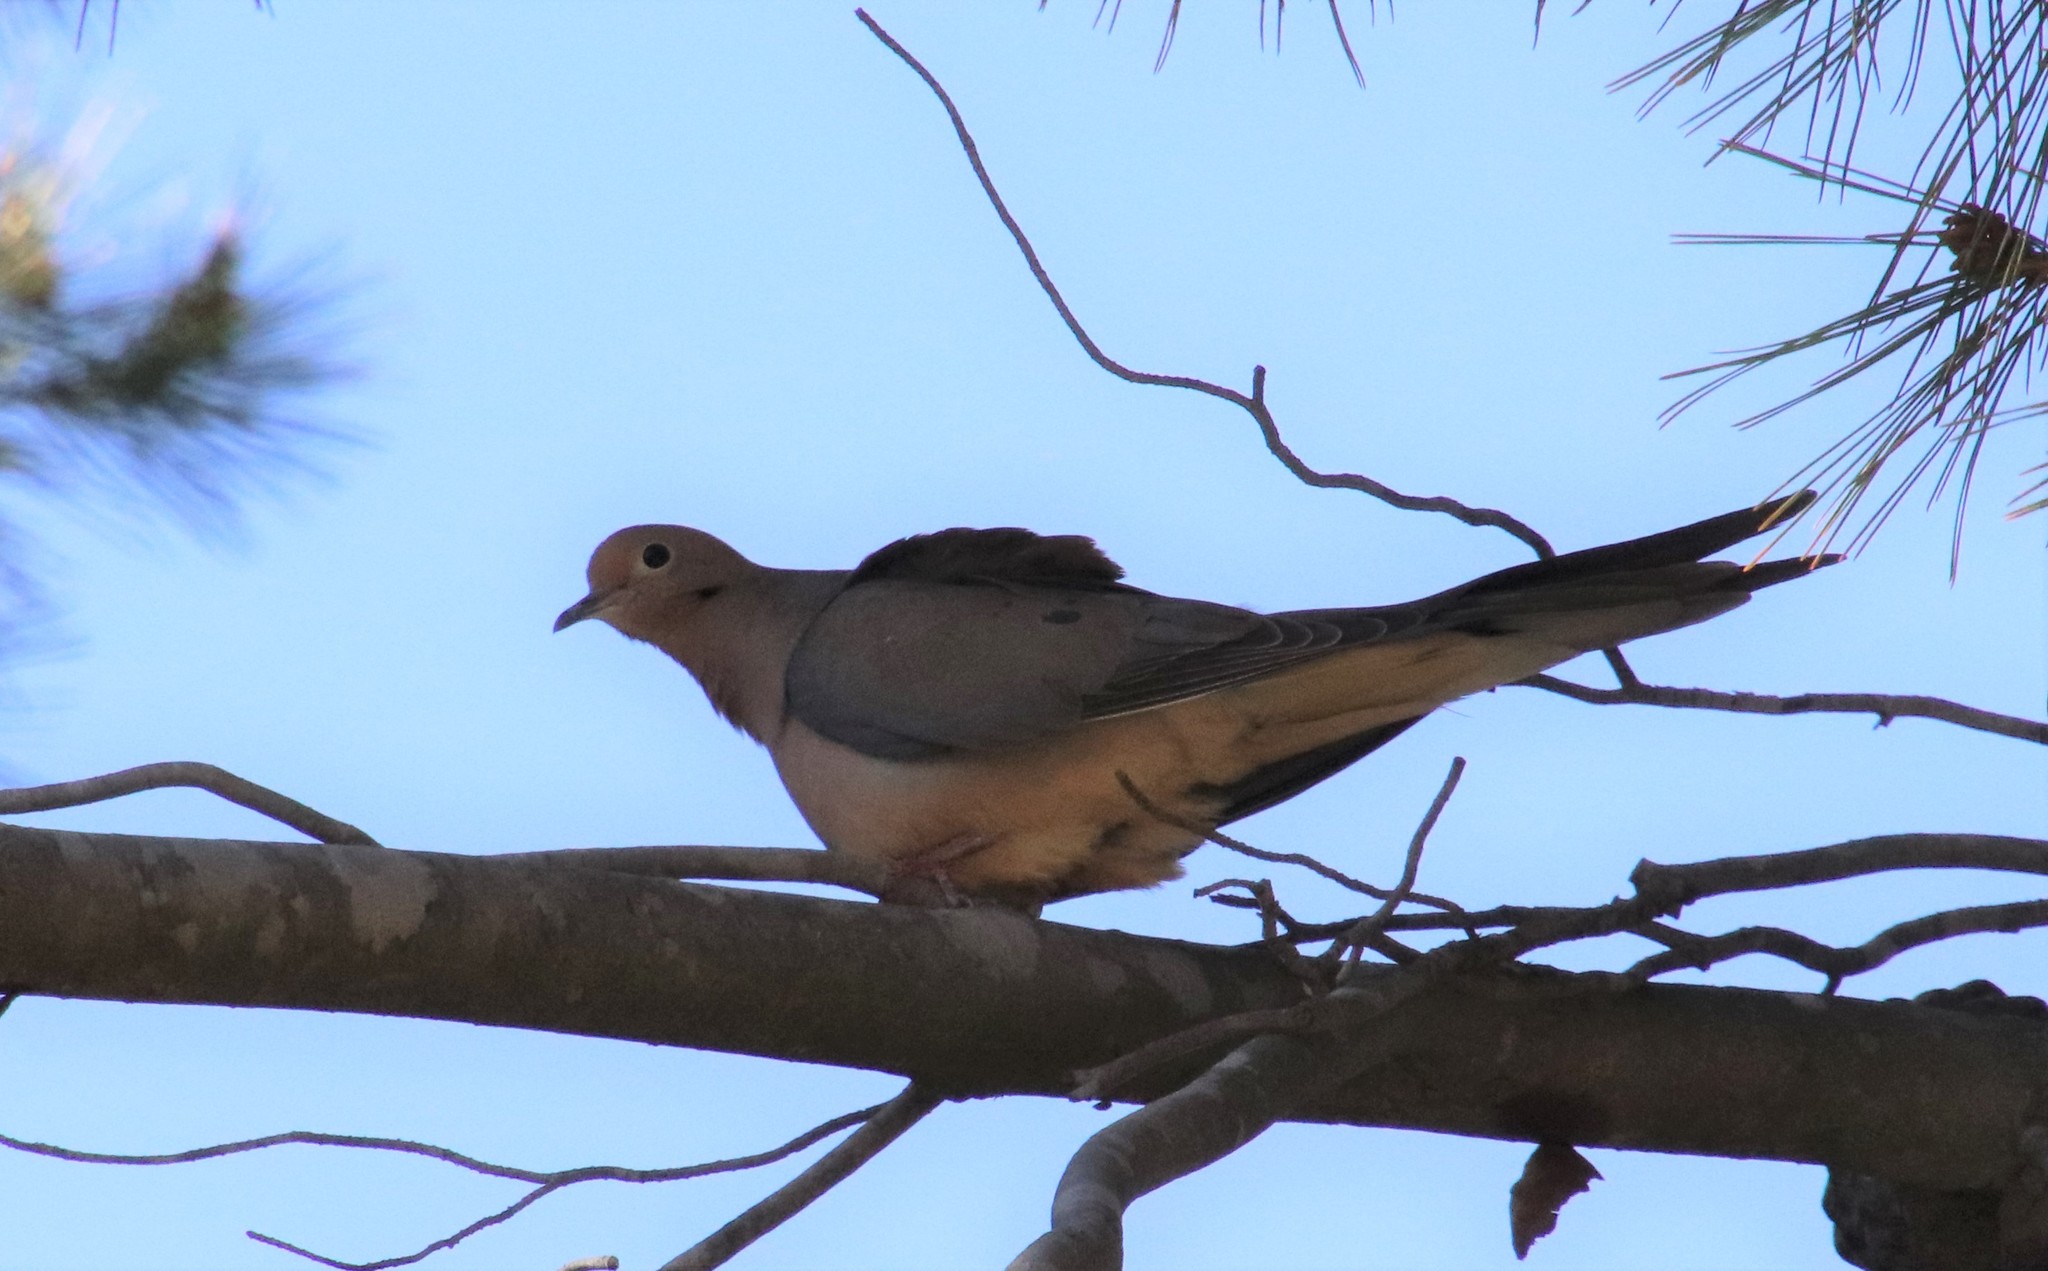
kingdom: Animalia
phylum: Chordata
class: Aves
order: Columbiformes
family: Columbidae
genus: Zenaida
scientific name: Zenaida macroura
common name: Mourning dove
